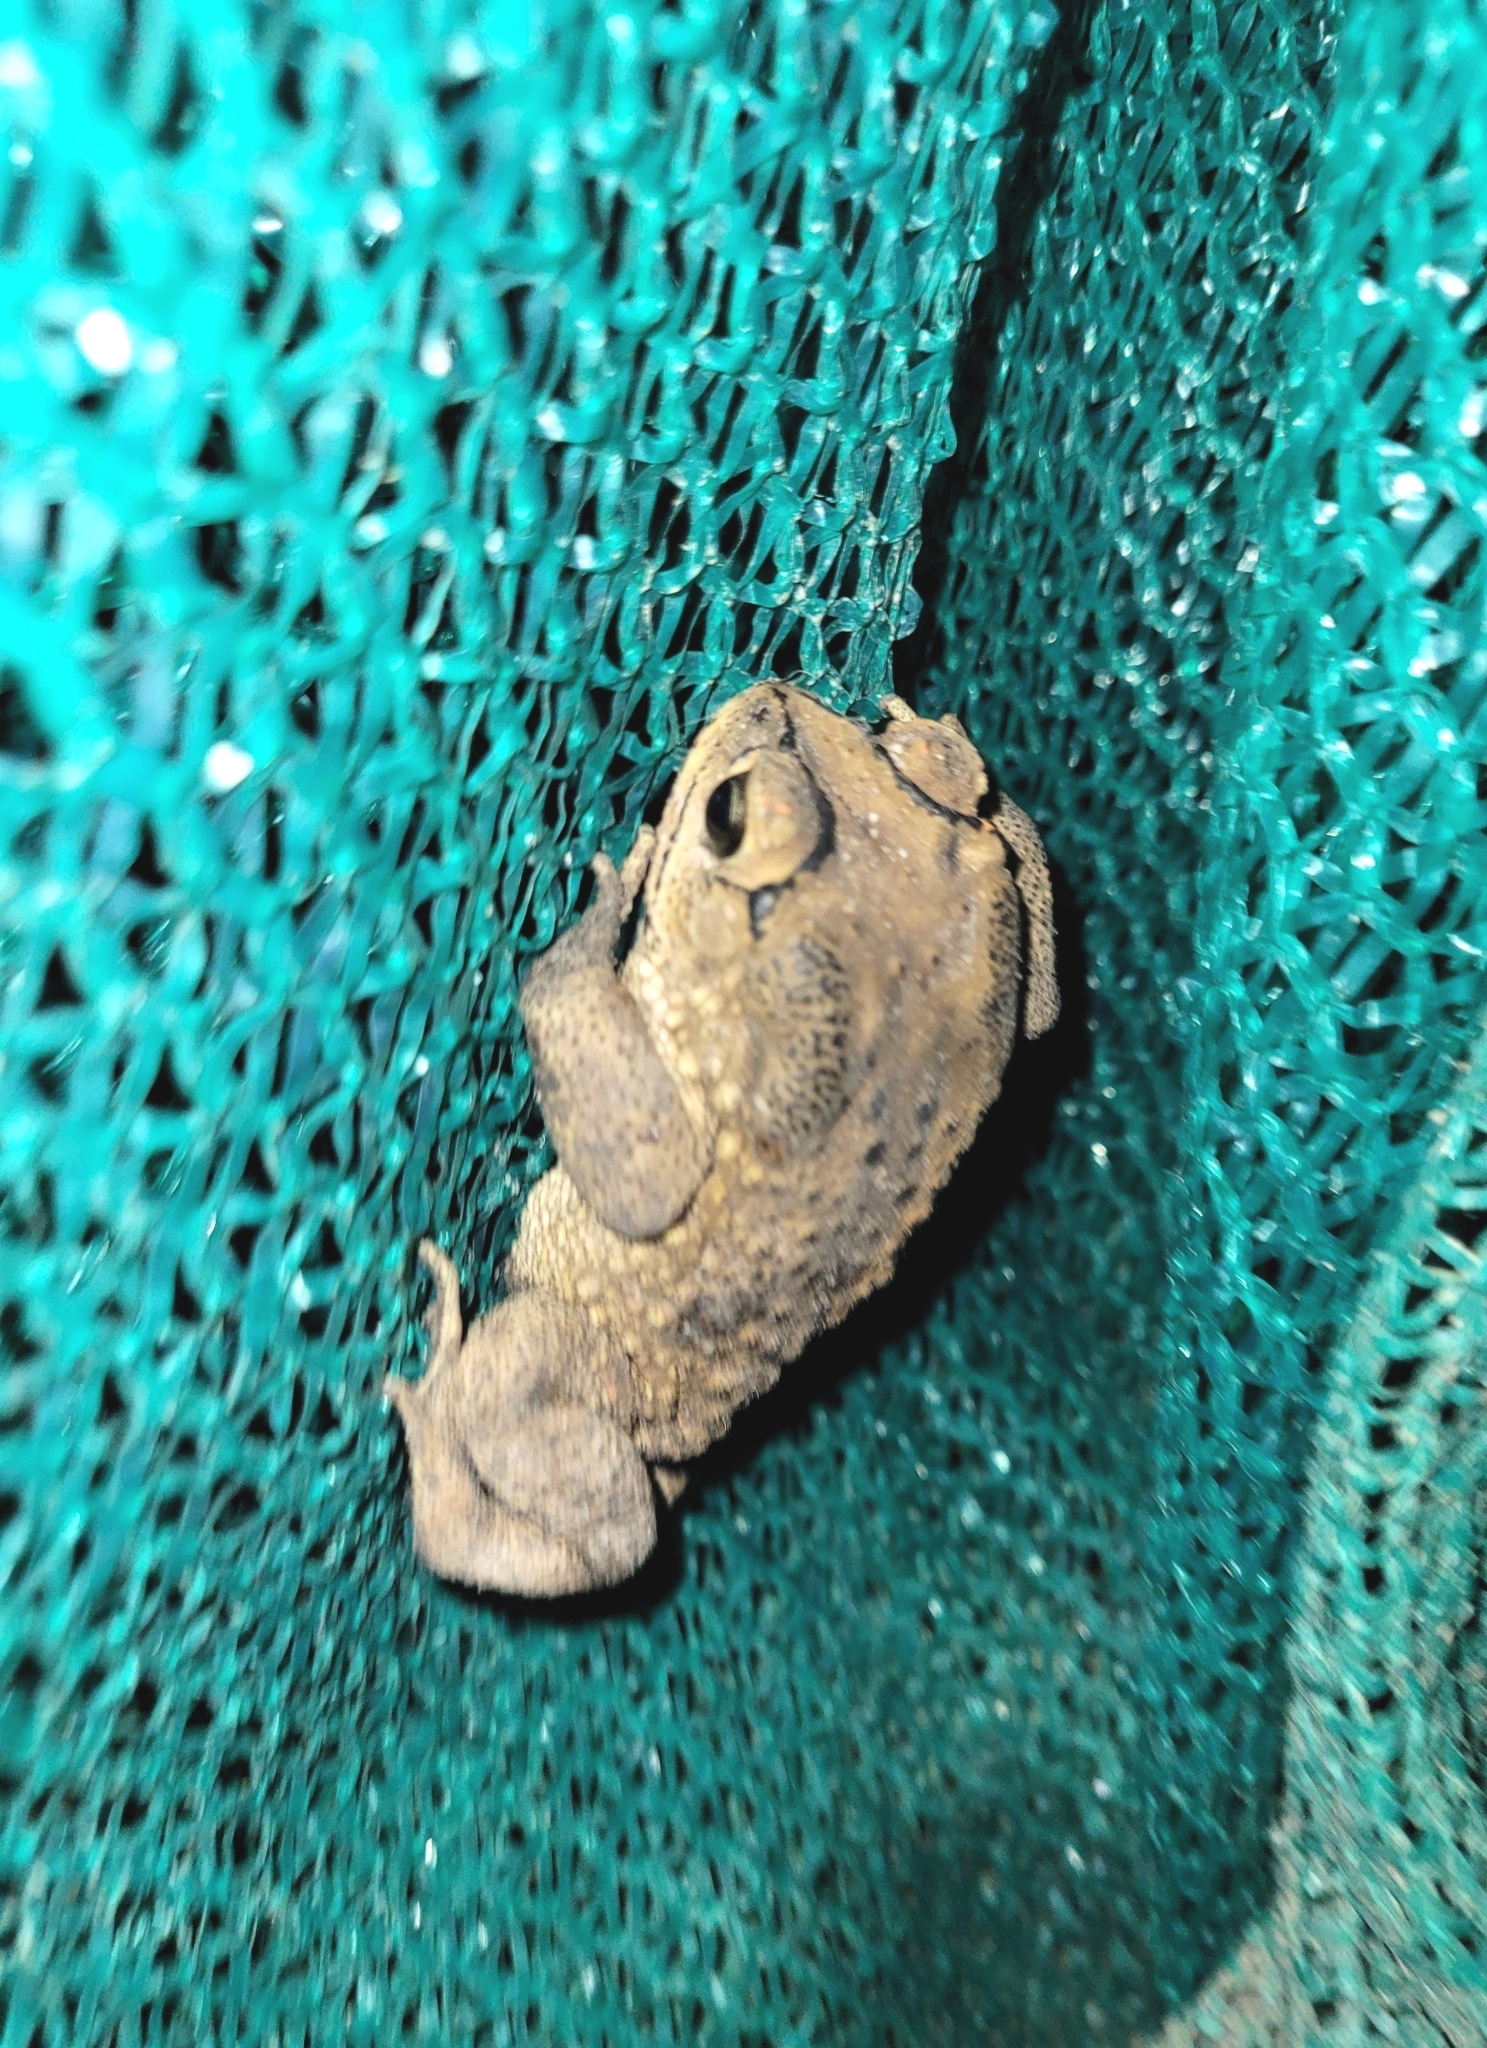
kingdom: Animalia
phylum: Chordata
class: Amphibia
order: Anura
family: Bufonidae
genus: Duttaphrynus
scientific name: Duttaphrynus melanostictus
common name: Common sunda toad
